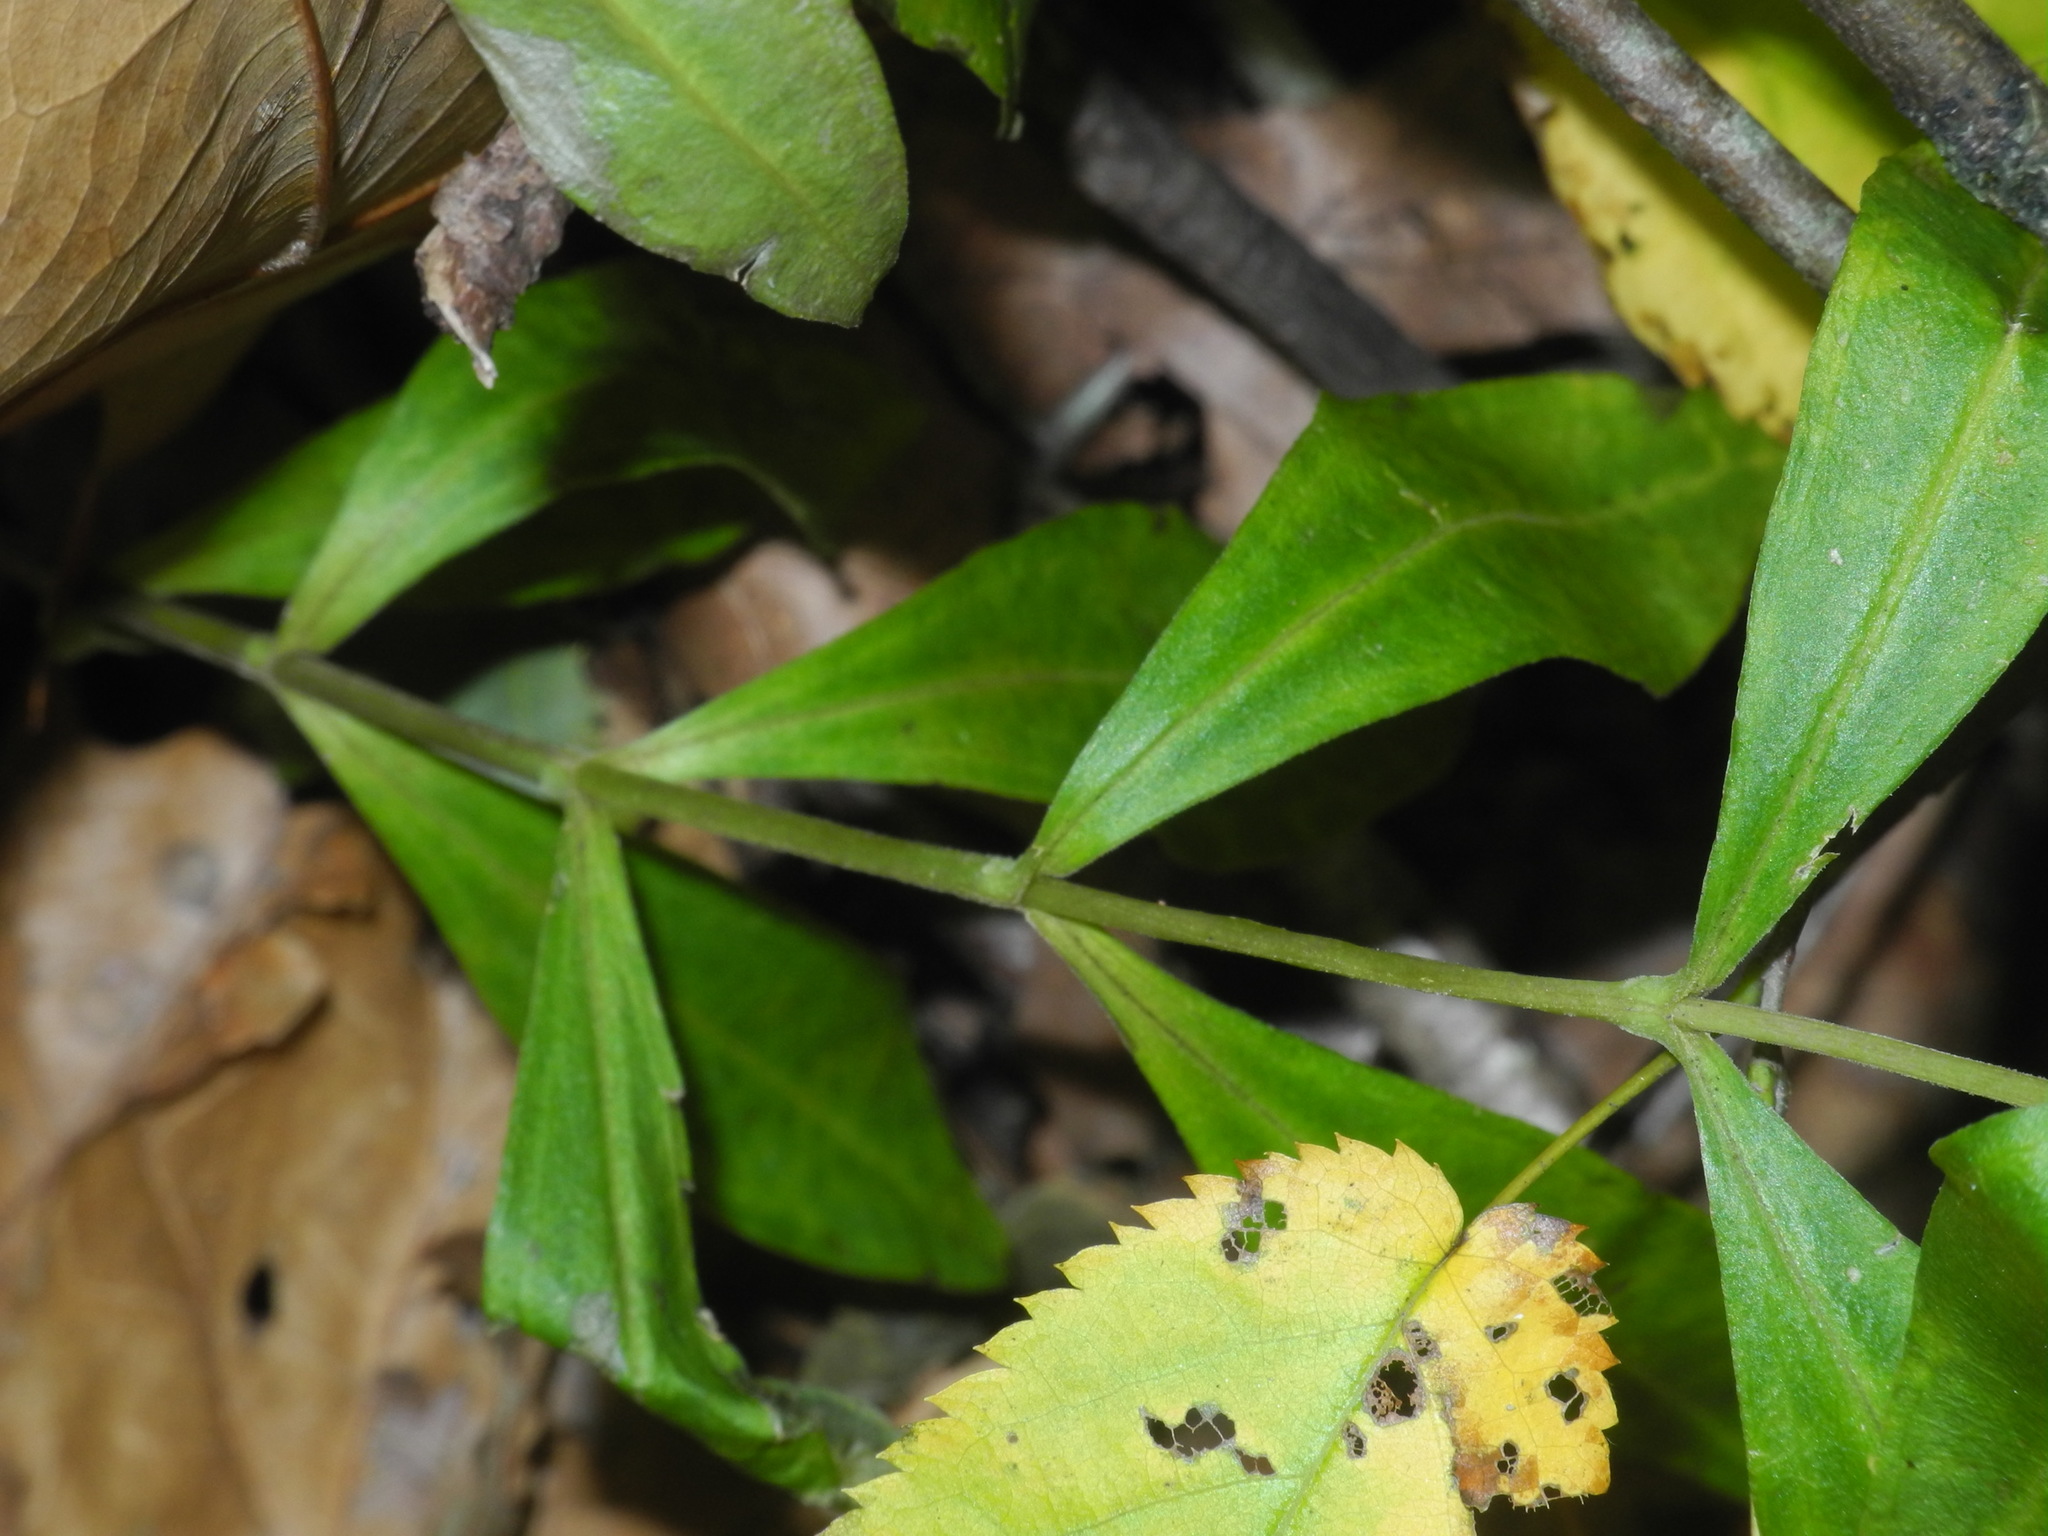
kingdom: Plantae
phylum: Tracheophyta
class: Magnoliopsida
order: Gentianales
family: Gentianaceae
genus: Gentiana
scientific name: Gentiana villosa
